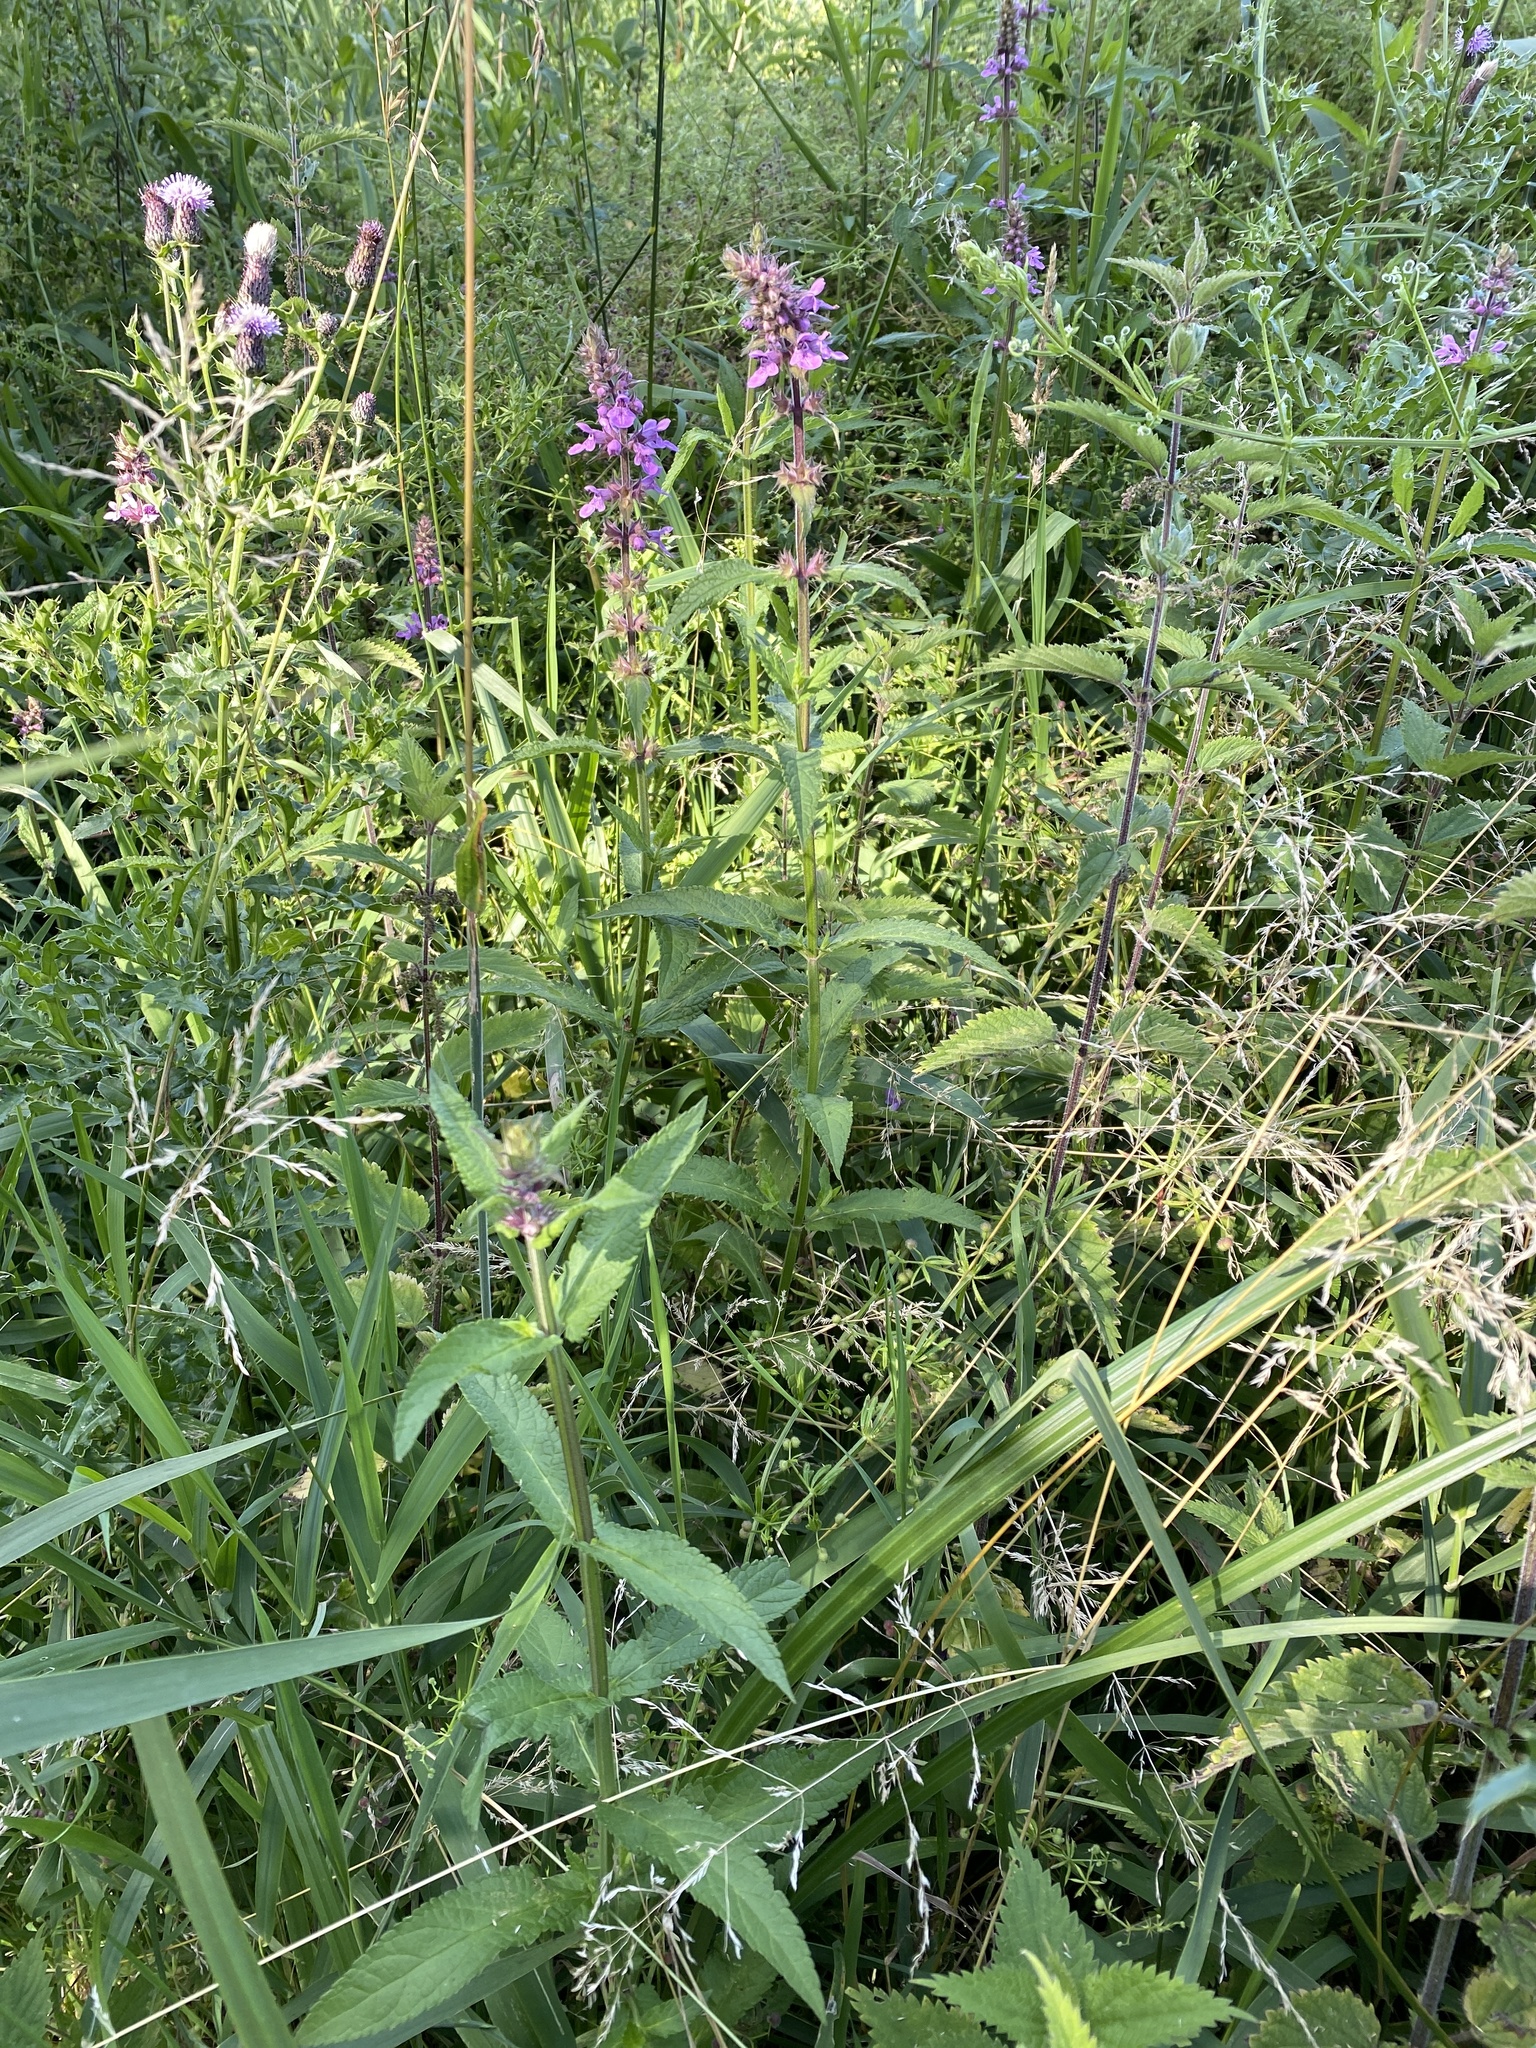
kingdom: Plantae
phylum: Tracheophyta
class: Magnoliopsida
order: Lamiales
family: Lamiaceae
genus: Stachys
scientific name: Stachys palustris
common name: Marsh woundwort
